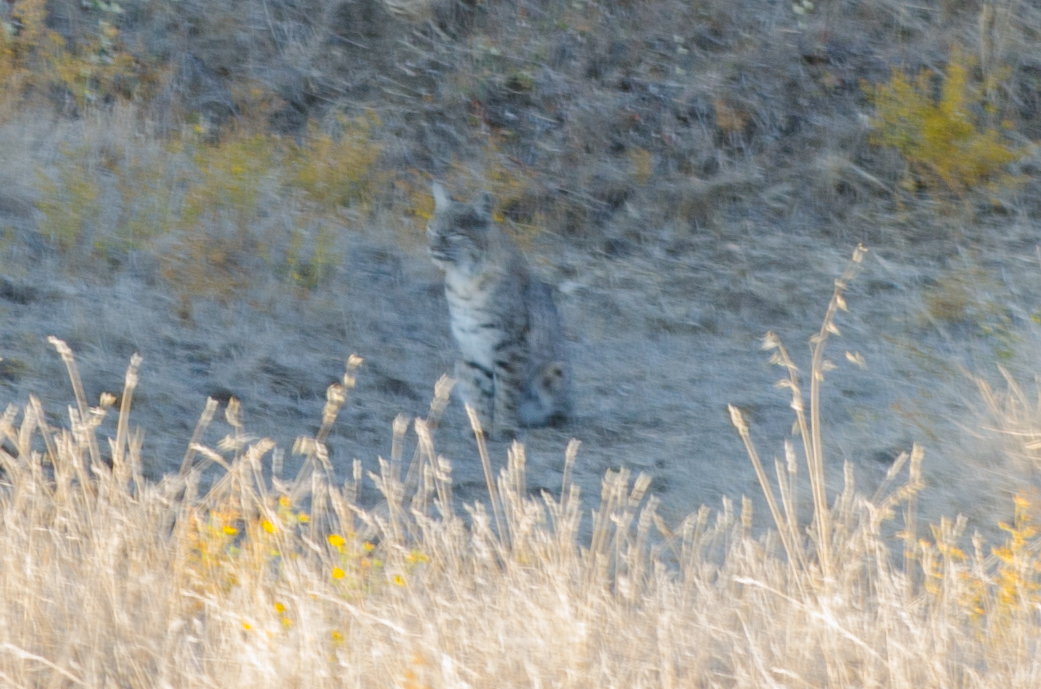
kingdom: Animalia
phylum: Chordata
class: Mammalia
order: Carnivora
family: Felidae
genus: Lynx
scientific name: Lynx rufus
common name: Bobcat
